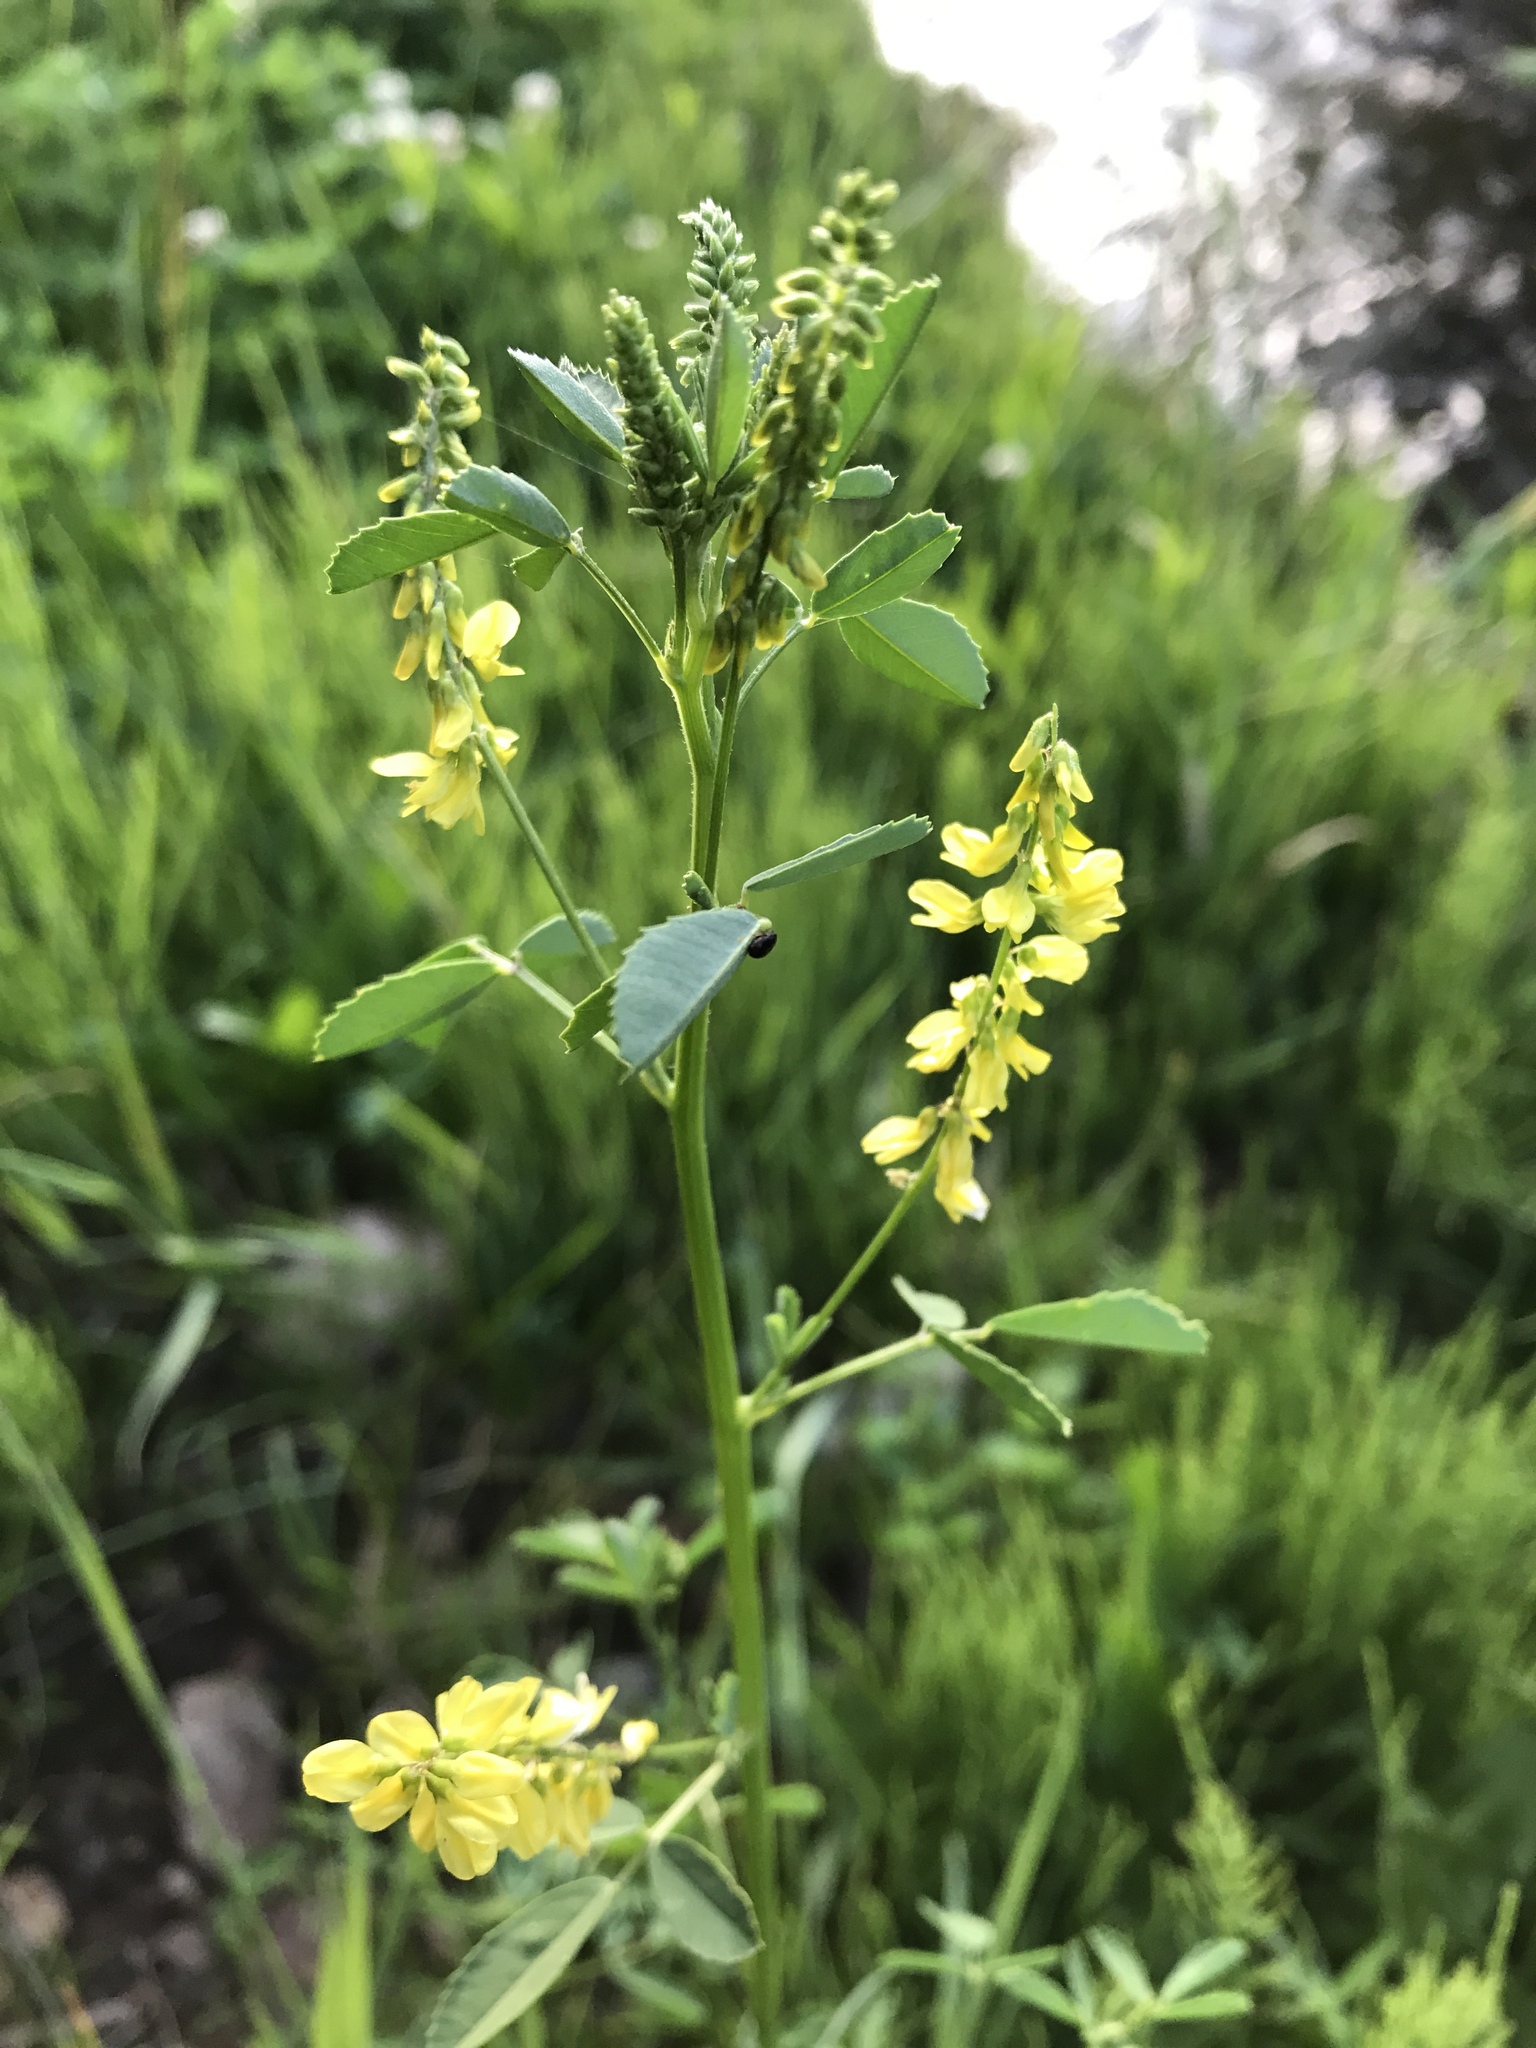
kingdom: Plantae
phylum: Tracheophyta
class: Magnoliopsida
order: Fabales
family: Fabaceae
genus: Melilotus
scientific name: Melilotus officinalis
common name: Sweetclover
